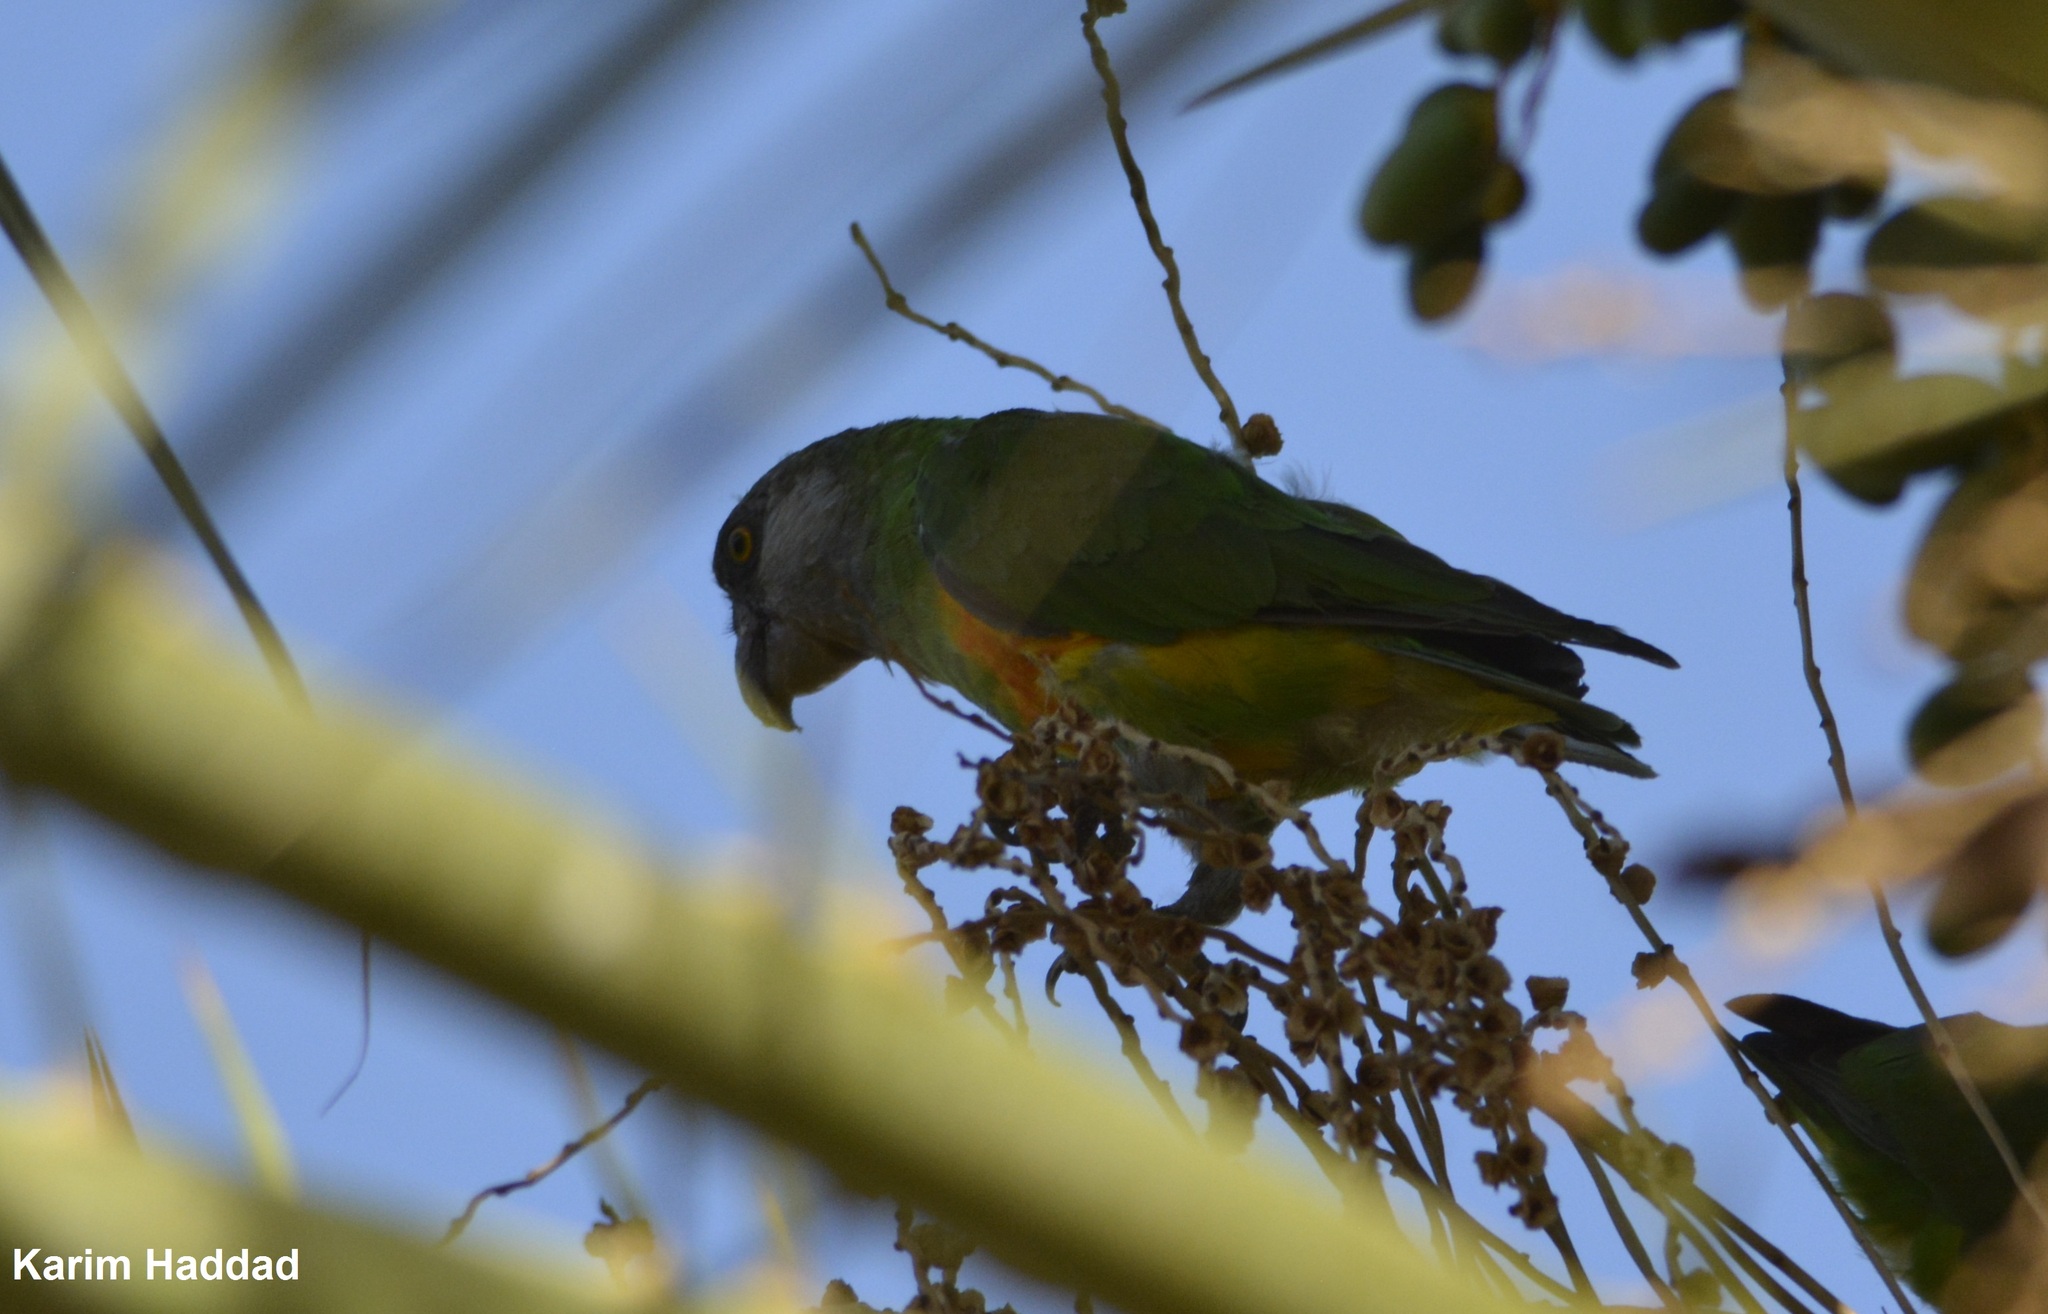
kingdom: Animalia
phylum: Chordata
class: Aves
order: Psittaciformes
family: Psittacidae
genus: Poicephalus
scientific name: Poicephalus senegalus
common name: Senegal parrot
